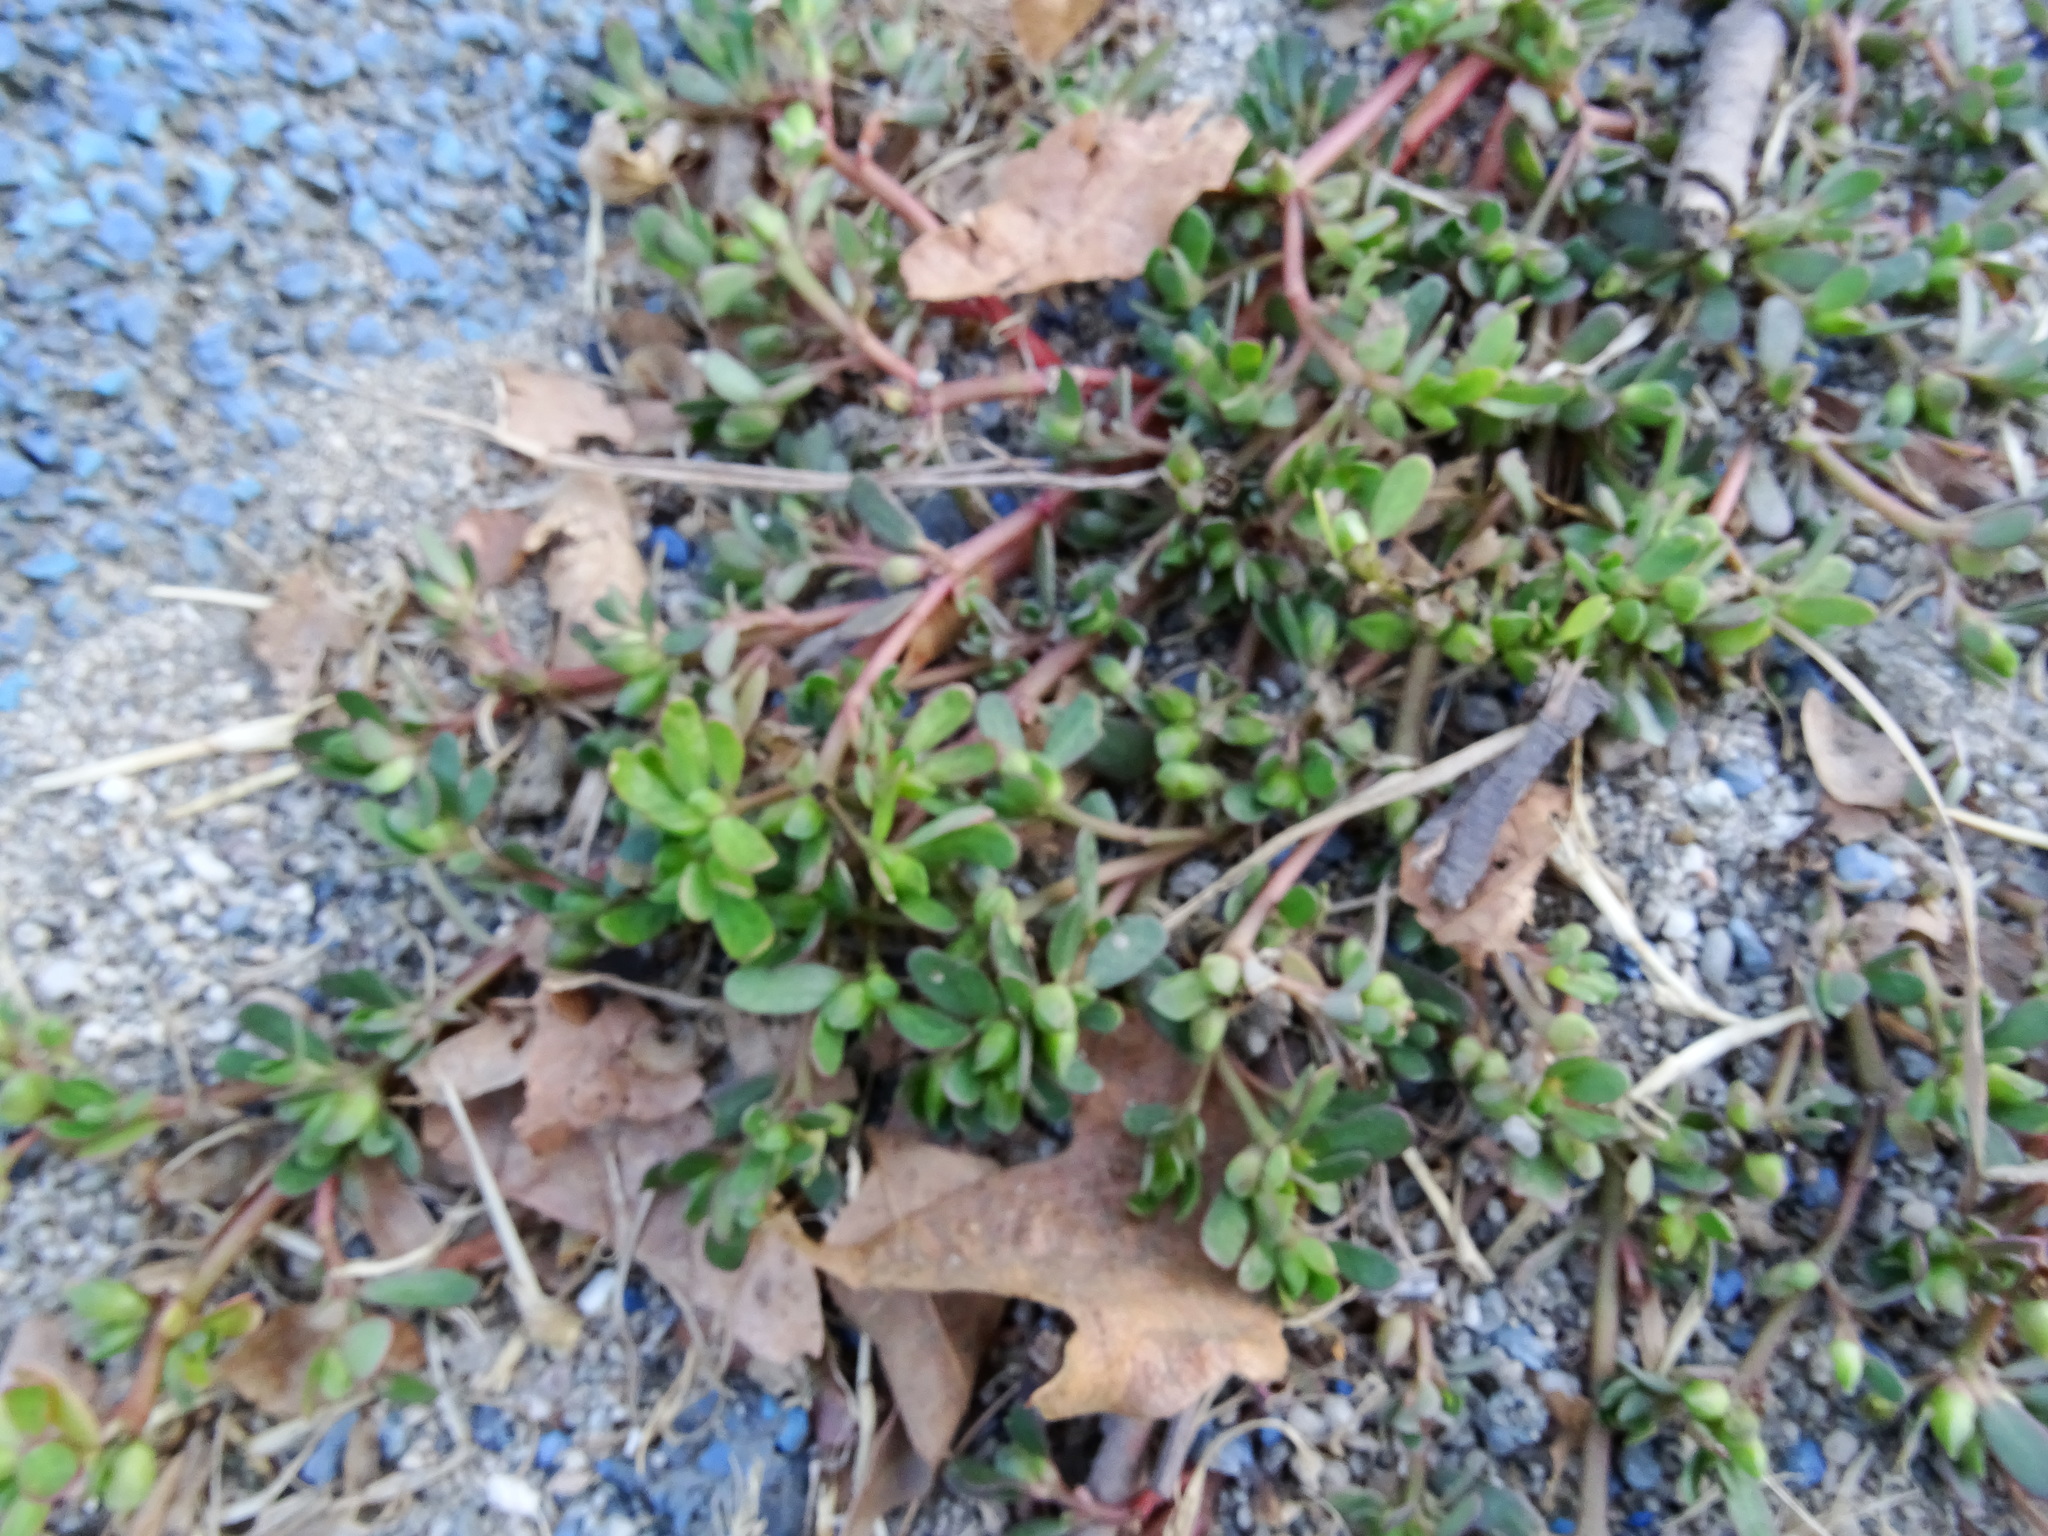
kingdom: Plantae
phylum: Tracheophyta
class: Magnoliopsida
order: Caryophyllales
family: Portulacaceae
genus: Portulaca
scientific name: Portulaca oleracea
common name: Common purslane
